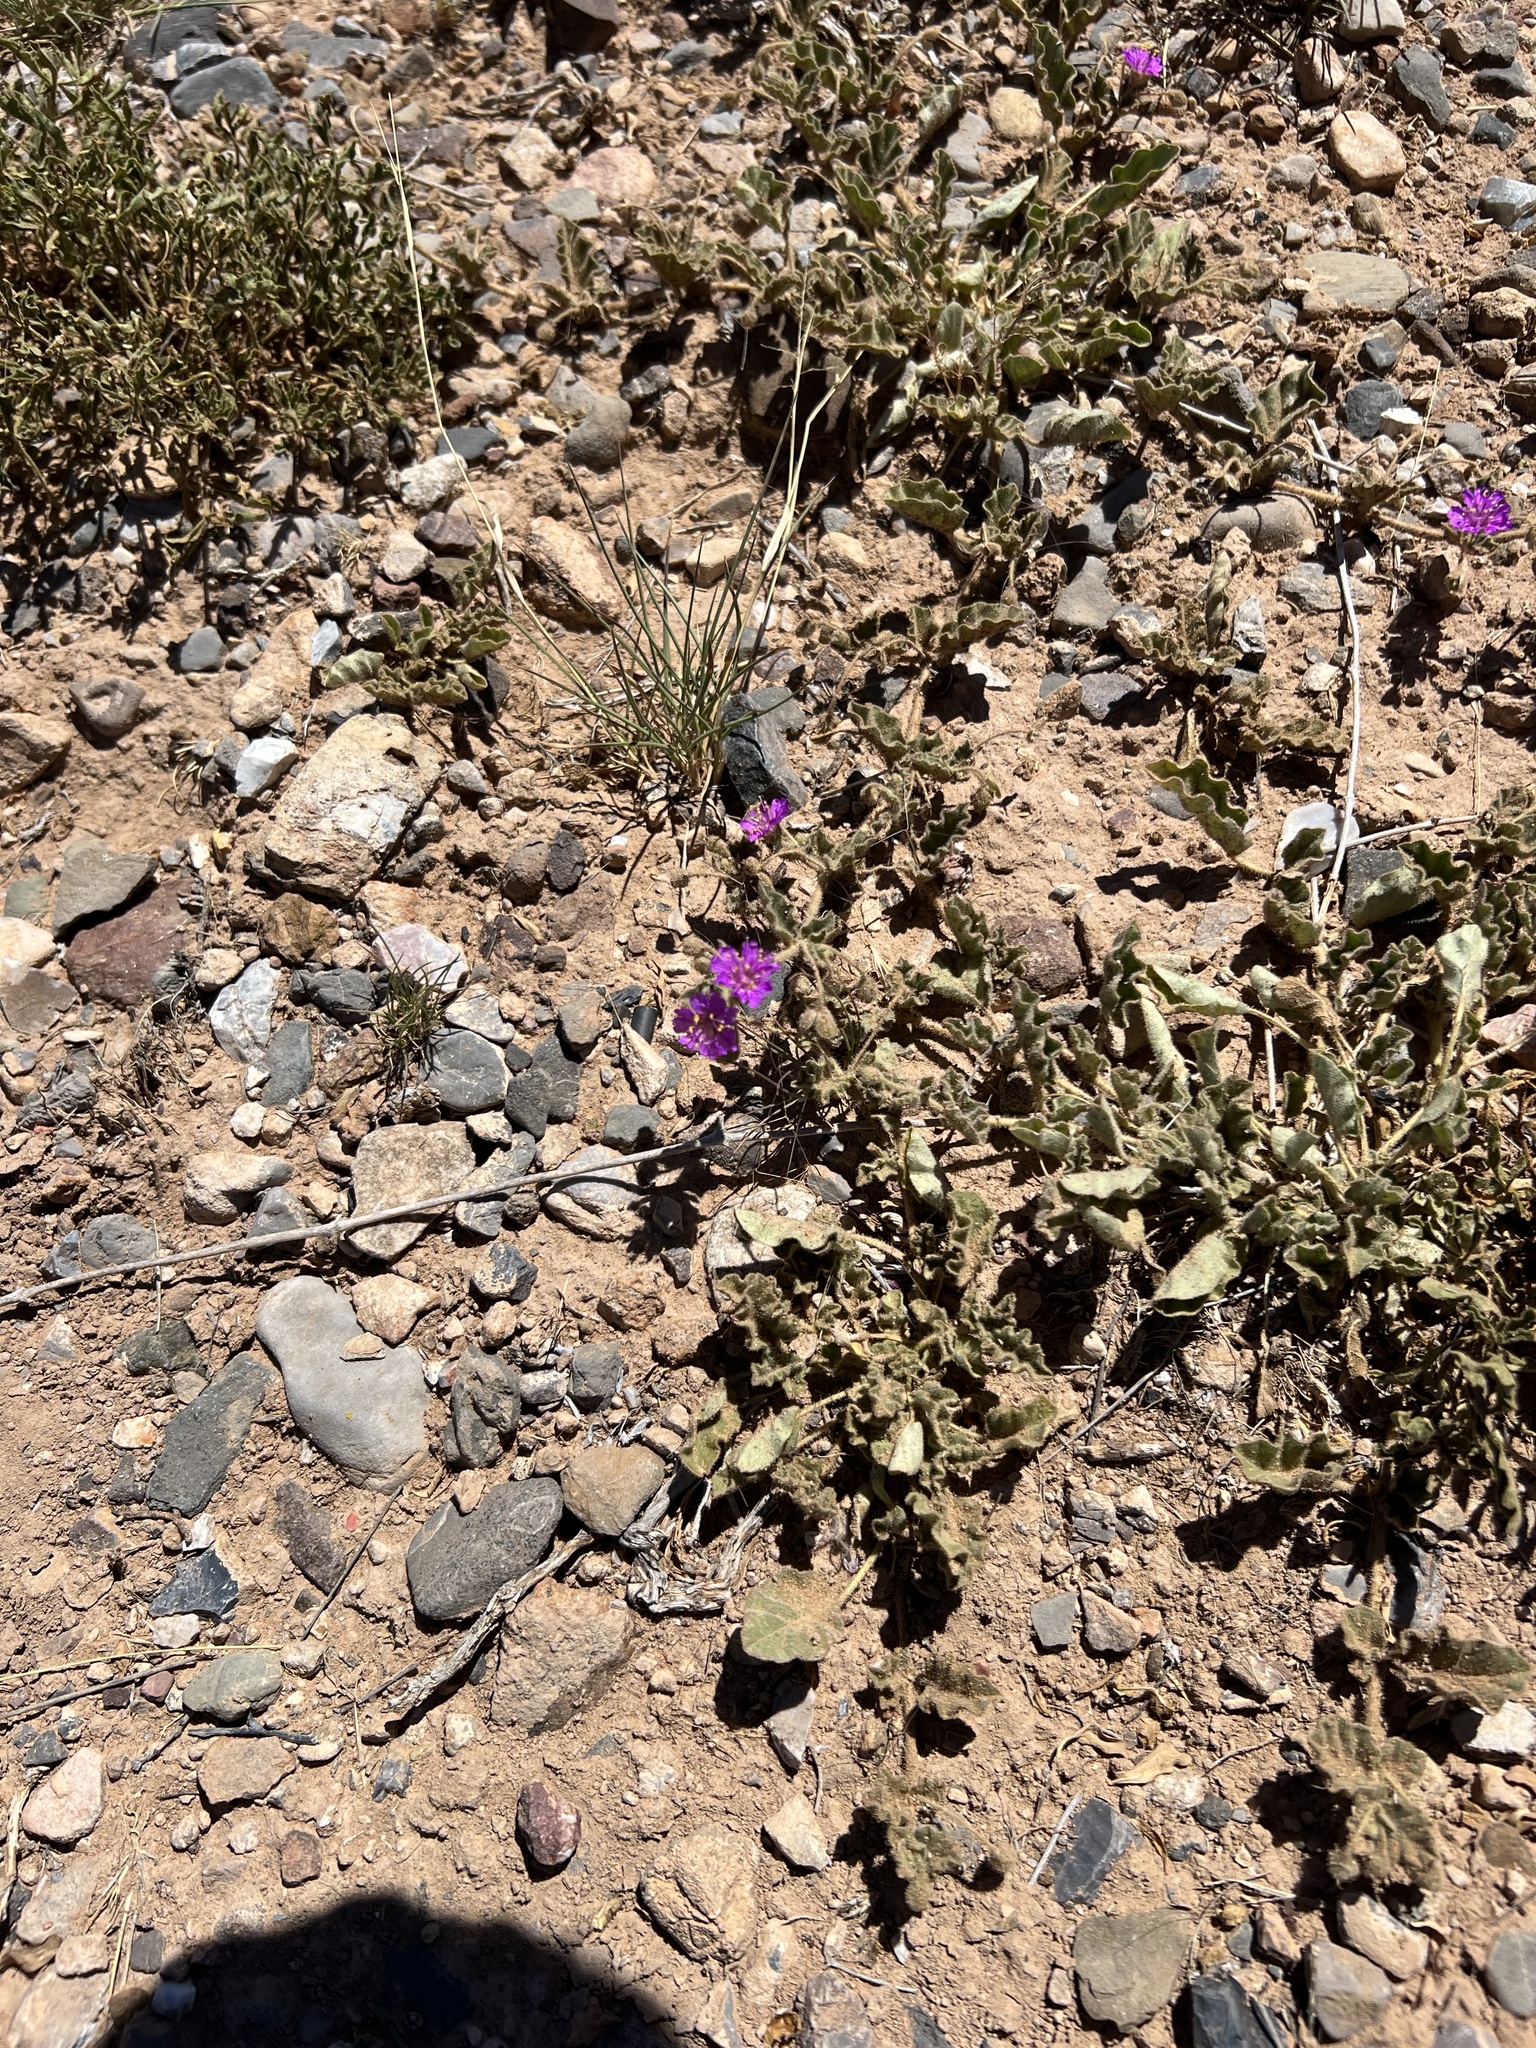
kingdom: Plantae
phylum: Tracheophyta
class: Magnoliopsida
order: Caryophyllales
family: Nyctaginaceae
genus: Allionia
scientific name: Allionia incarnata
